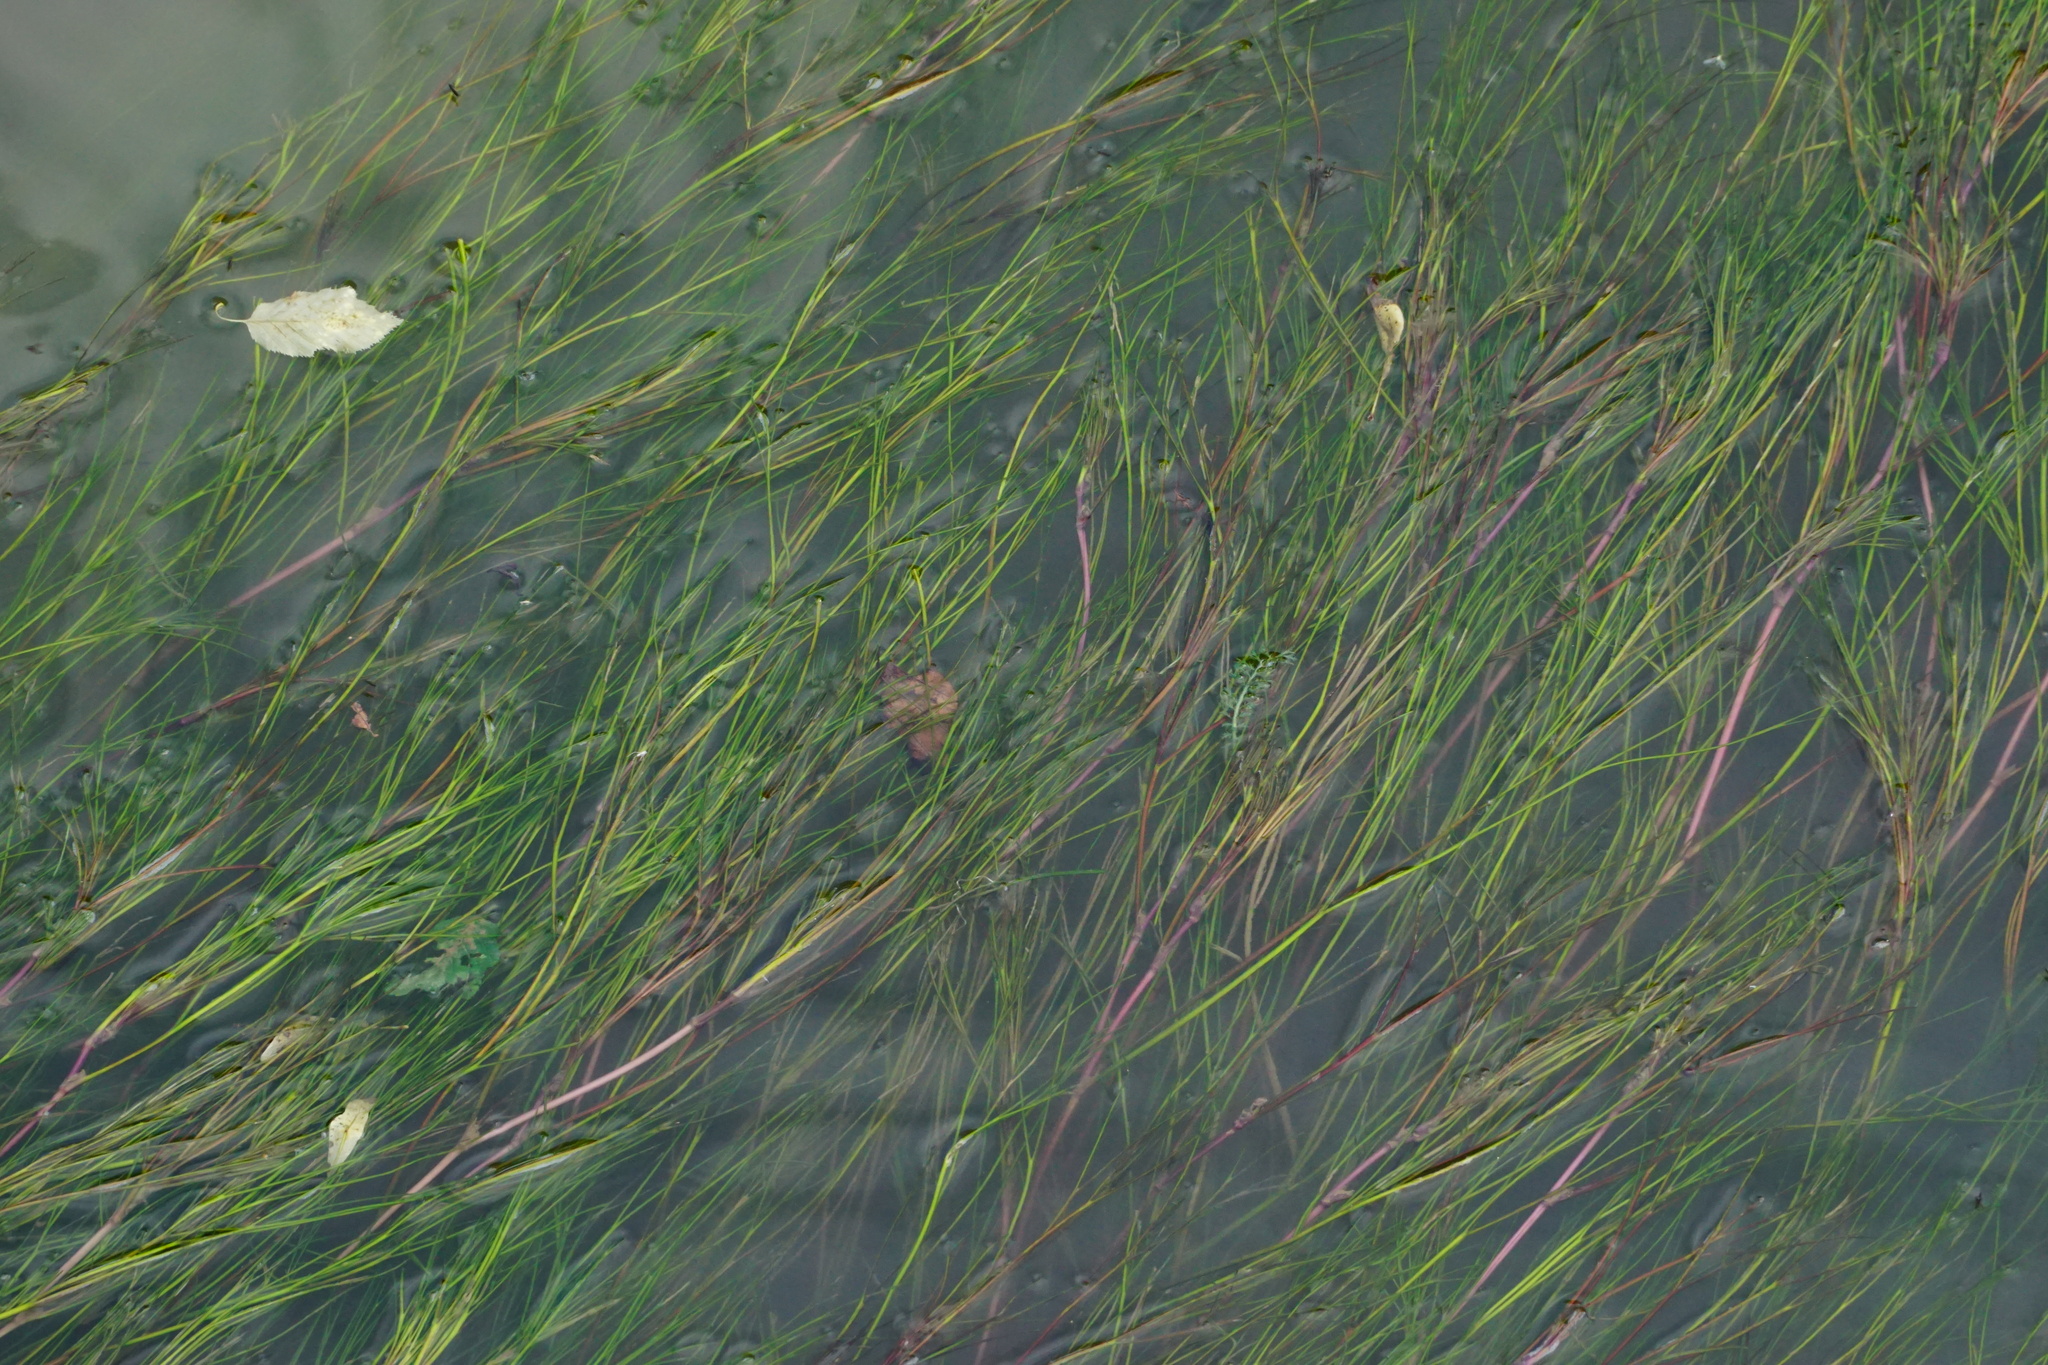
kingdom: Plantae
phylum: Tracheophyta
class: Magnoliopsida
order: Ranunculales
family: Ranunculaceae
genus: Ranunculus
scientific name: Ranunculus fluitans
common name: River water-crowfoot
